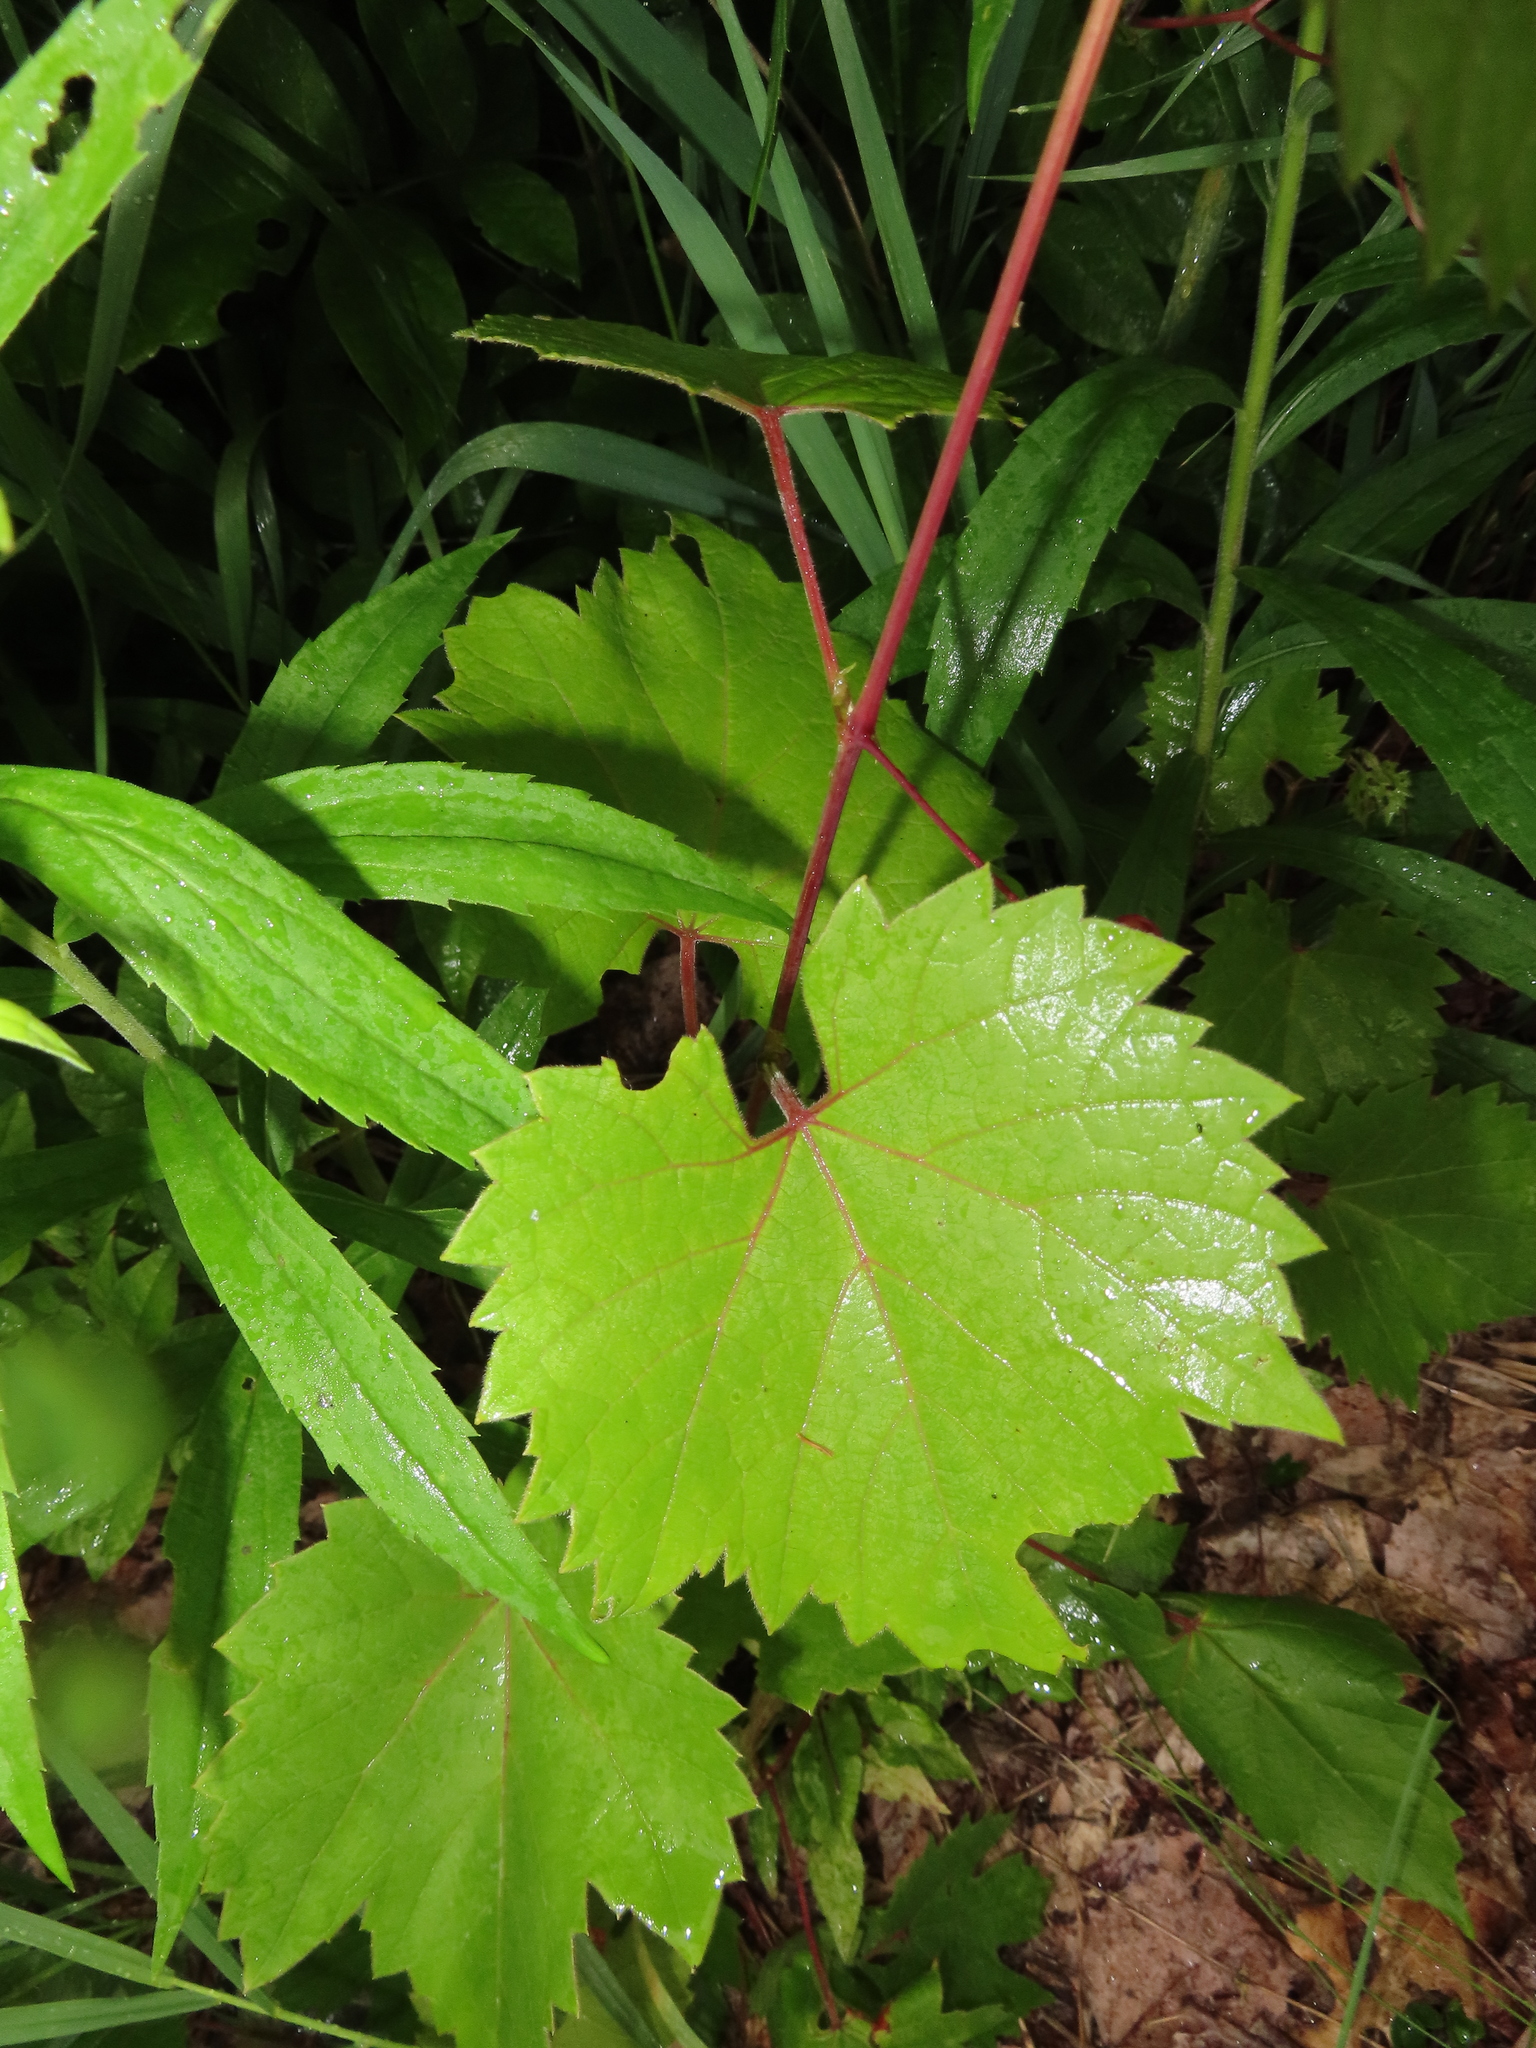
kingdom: Plantae
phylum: Tracheophyta
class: Magnoliopsida
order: Vitales
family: Vitaceae
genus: Vitis
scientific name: Vitis riparia
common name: Frost grape
